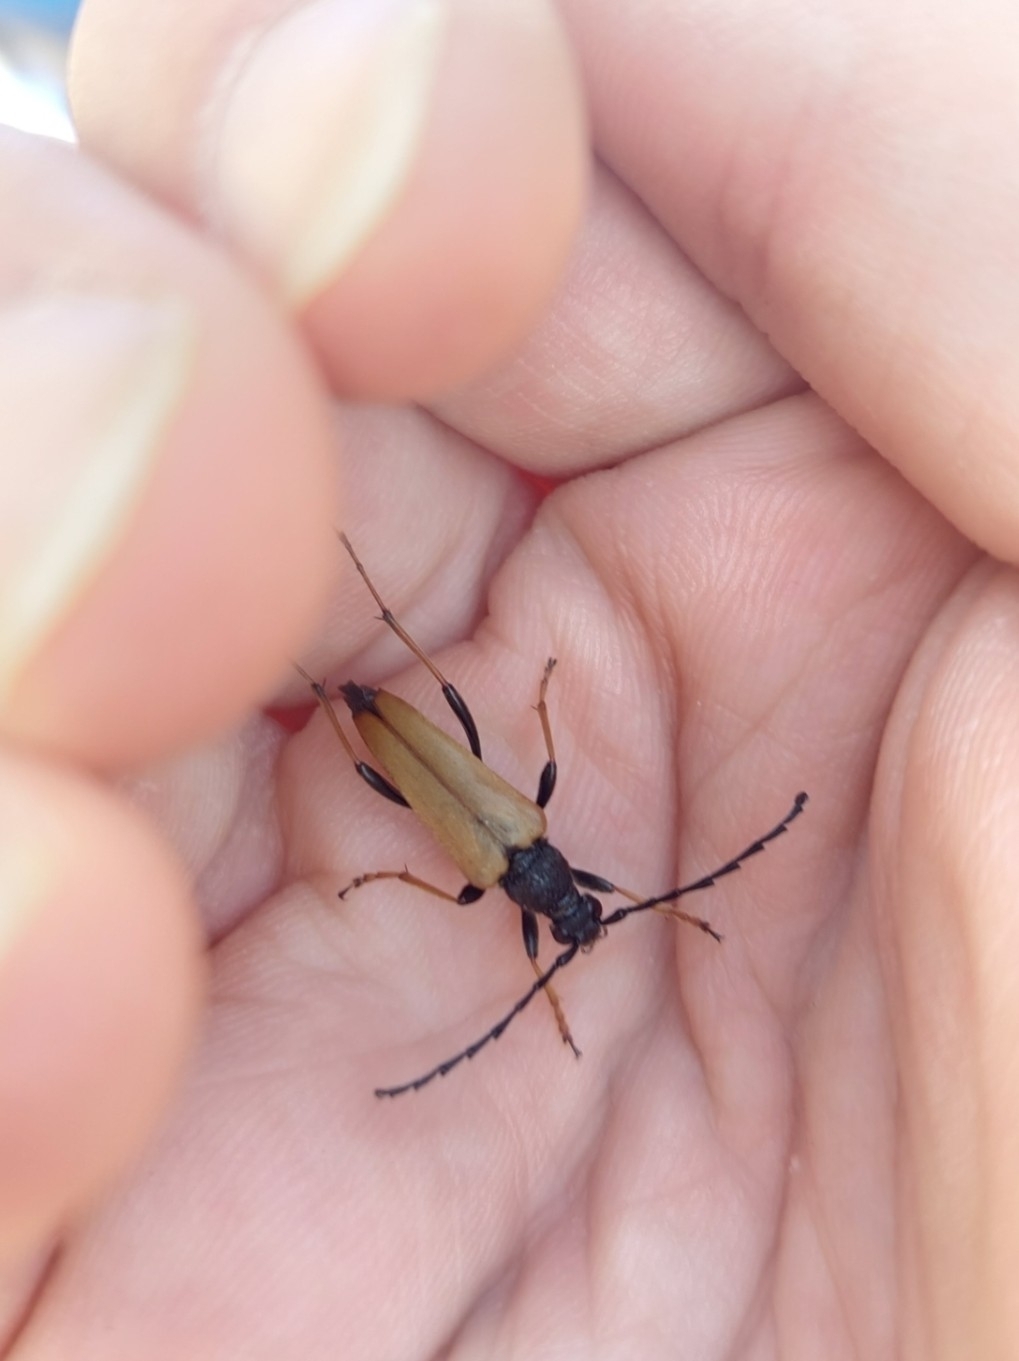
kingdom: Animalia
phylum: Arthropoda
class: Insecta
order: Coleoptera
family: Cerambycidae
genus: Stictoleptura
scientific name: Stictoleptura rubra
